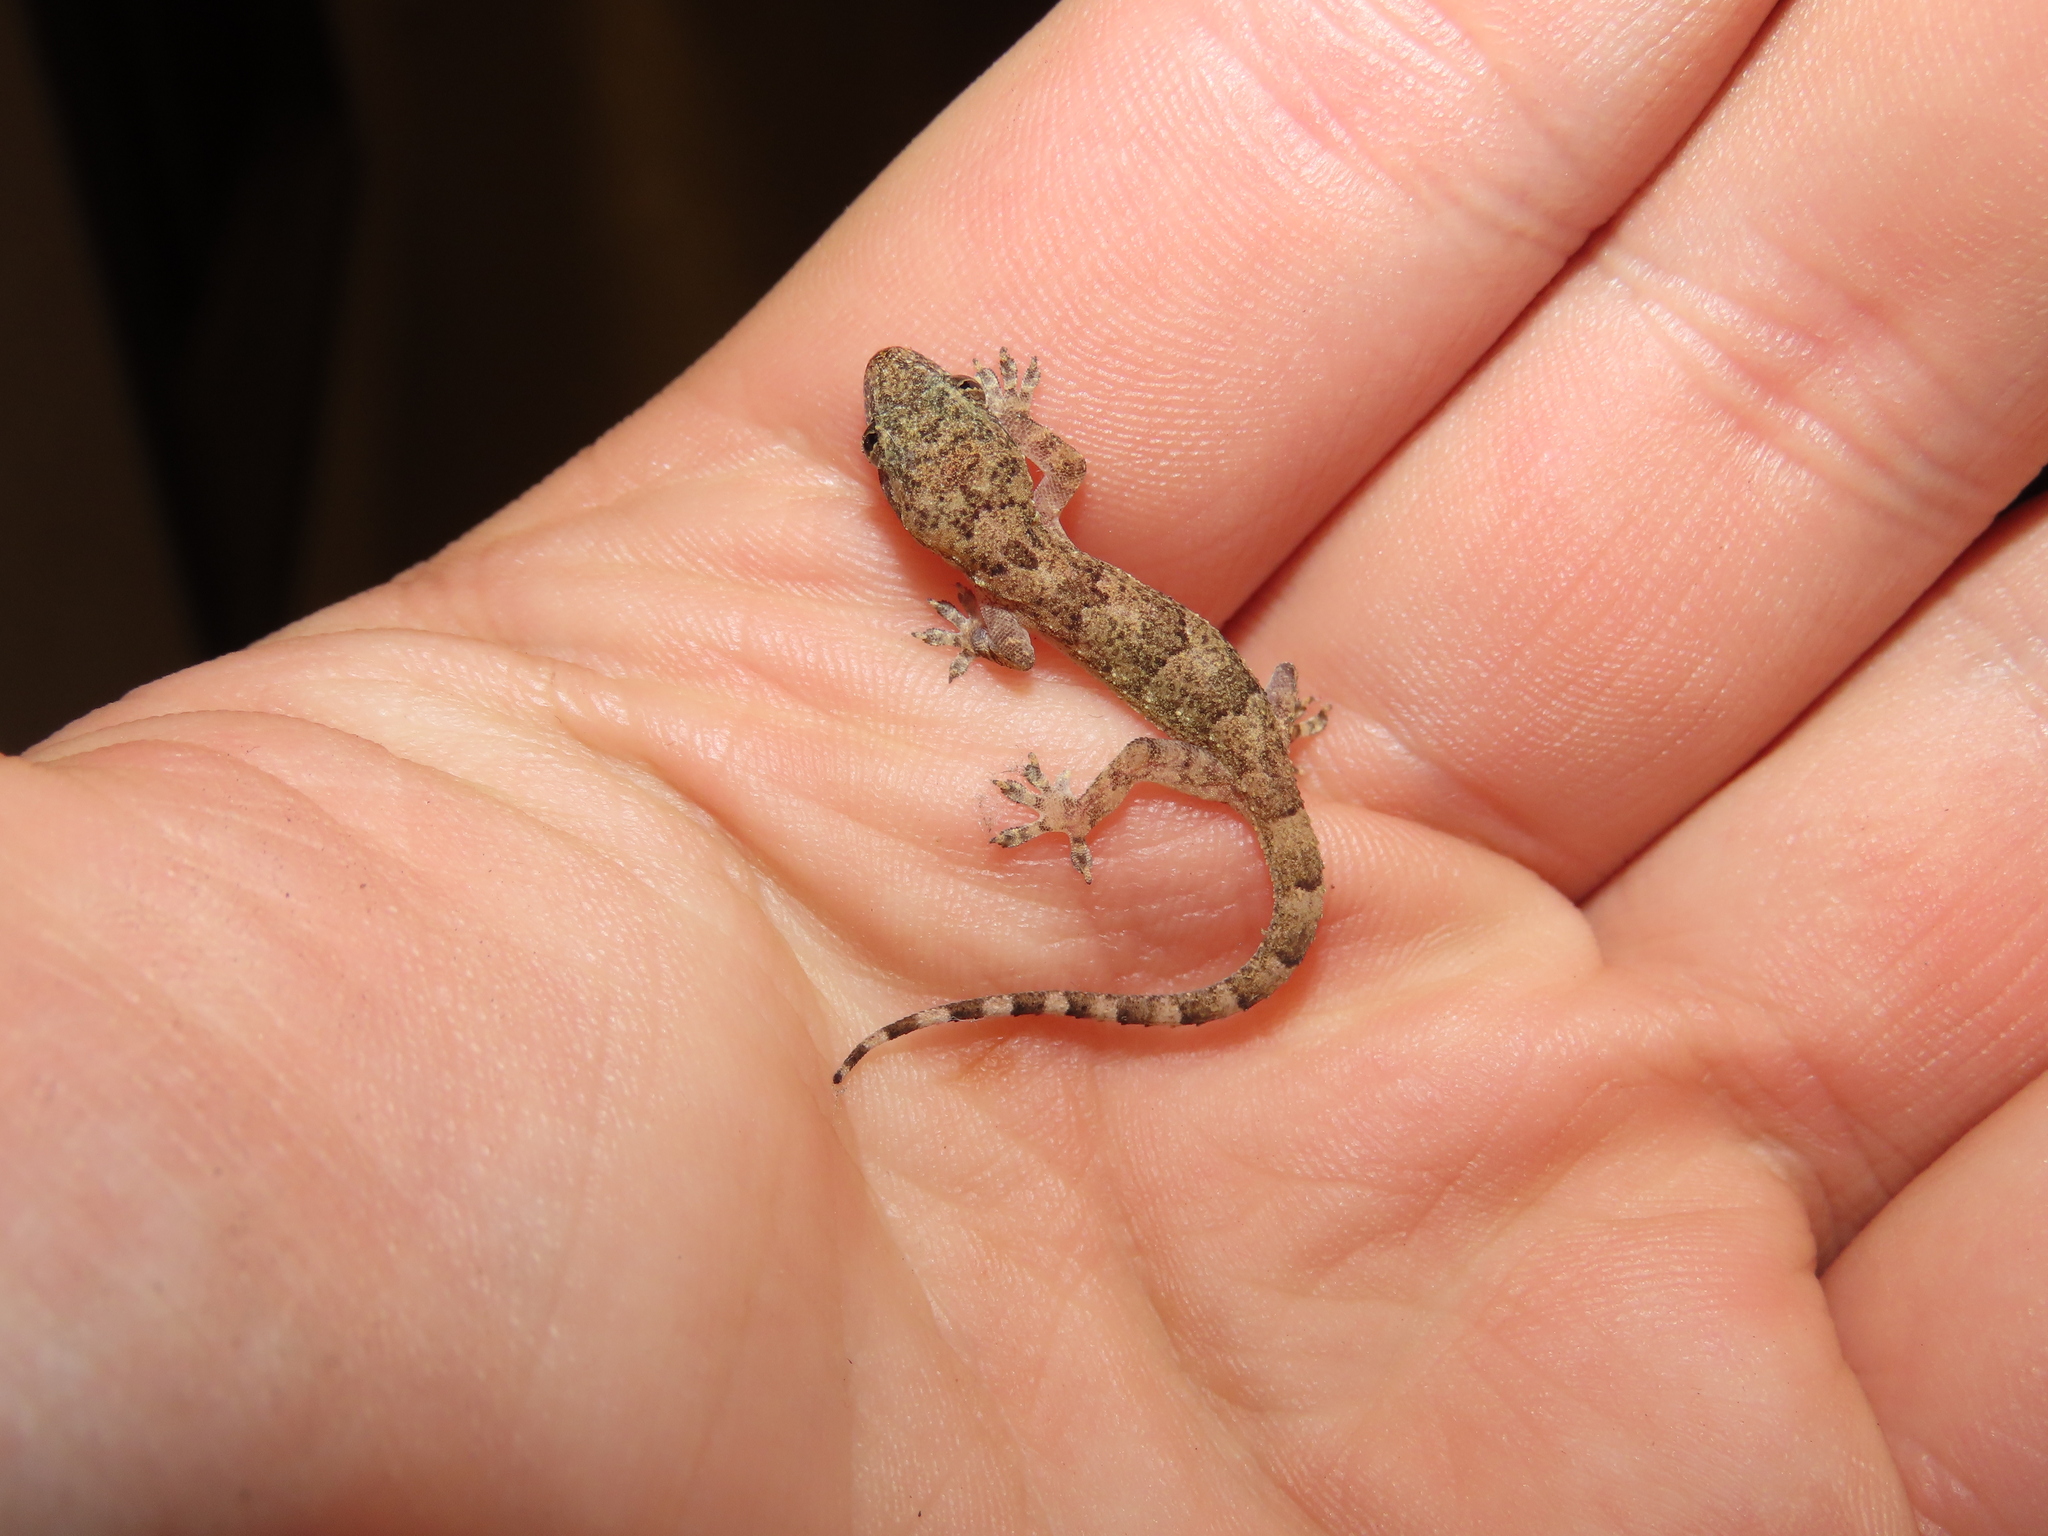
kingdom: Animalia
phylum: Chordata
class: Squamata
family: Gekkonidae
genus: Hemidactylus
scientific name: Hemidactylus mabouia
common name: House gecko
